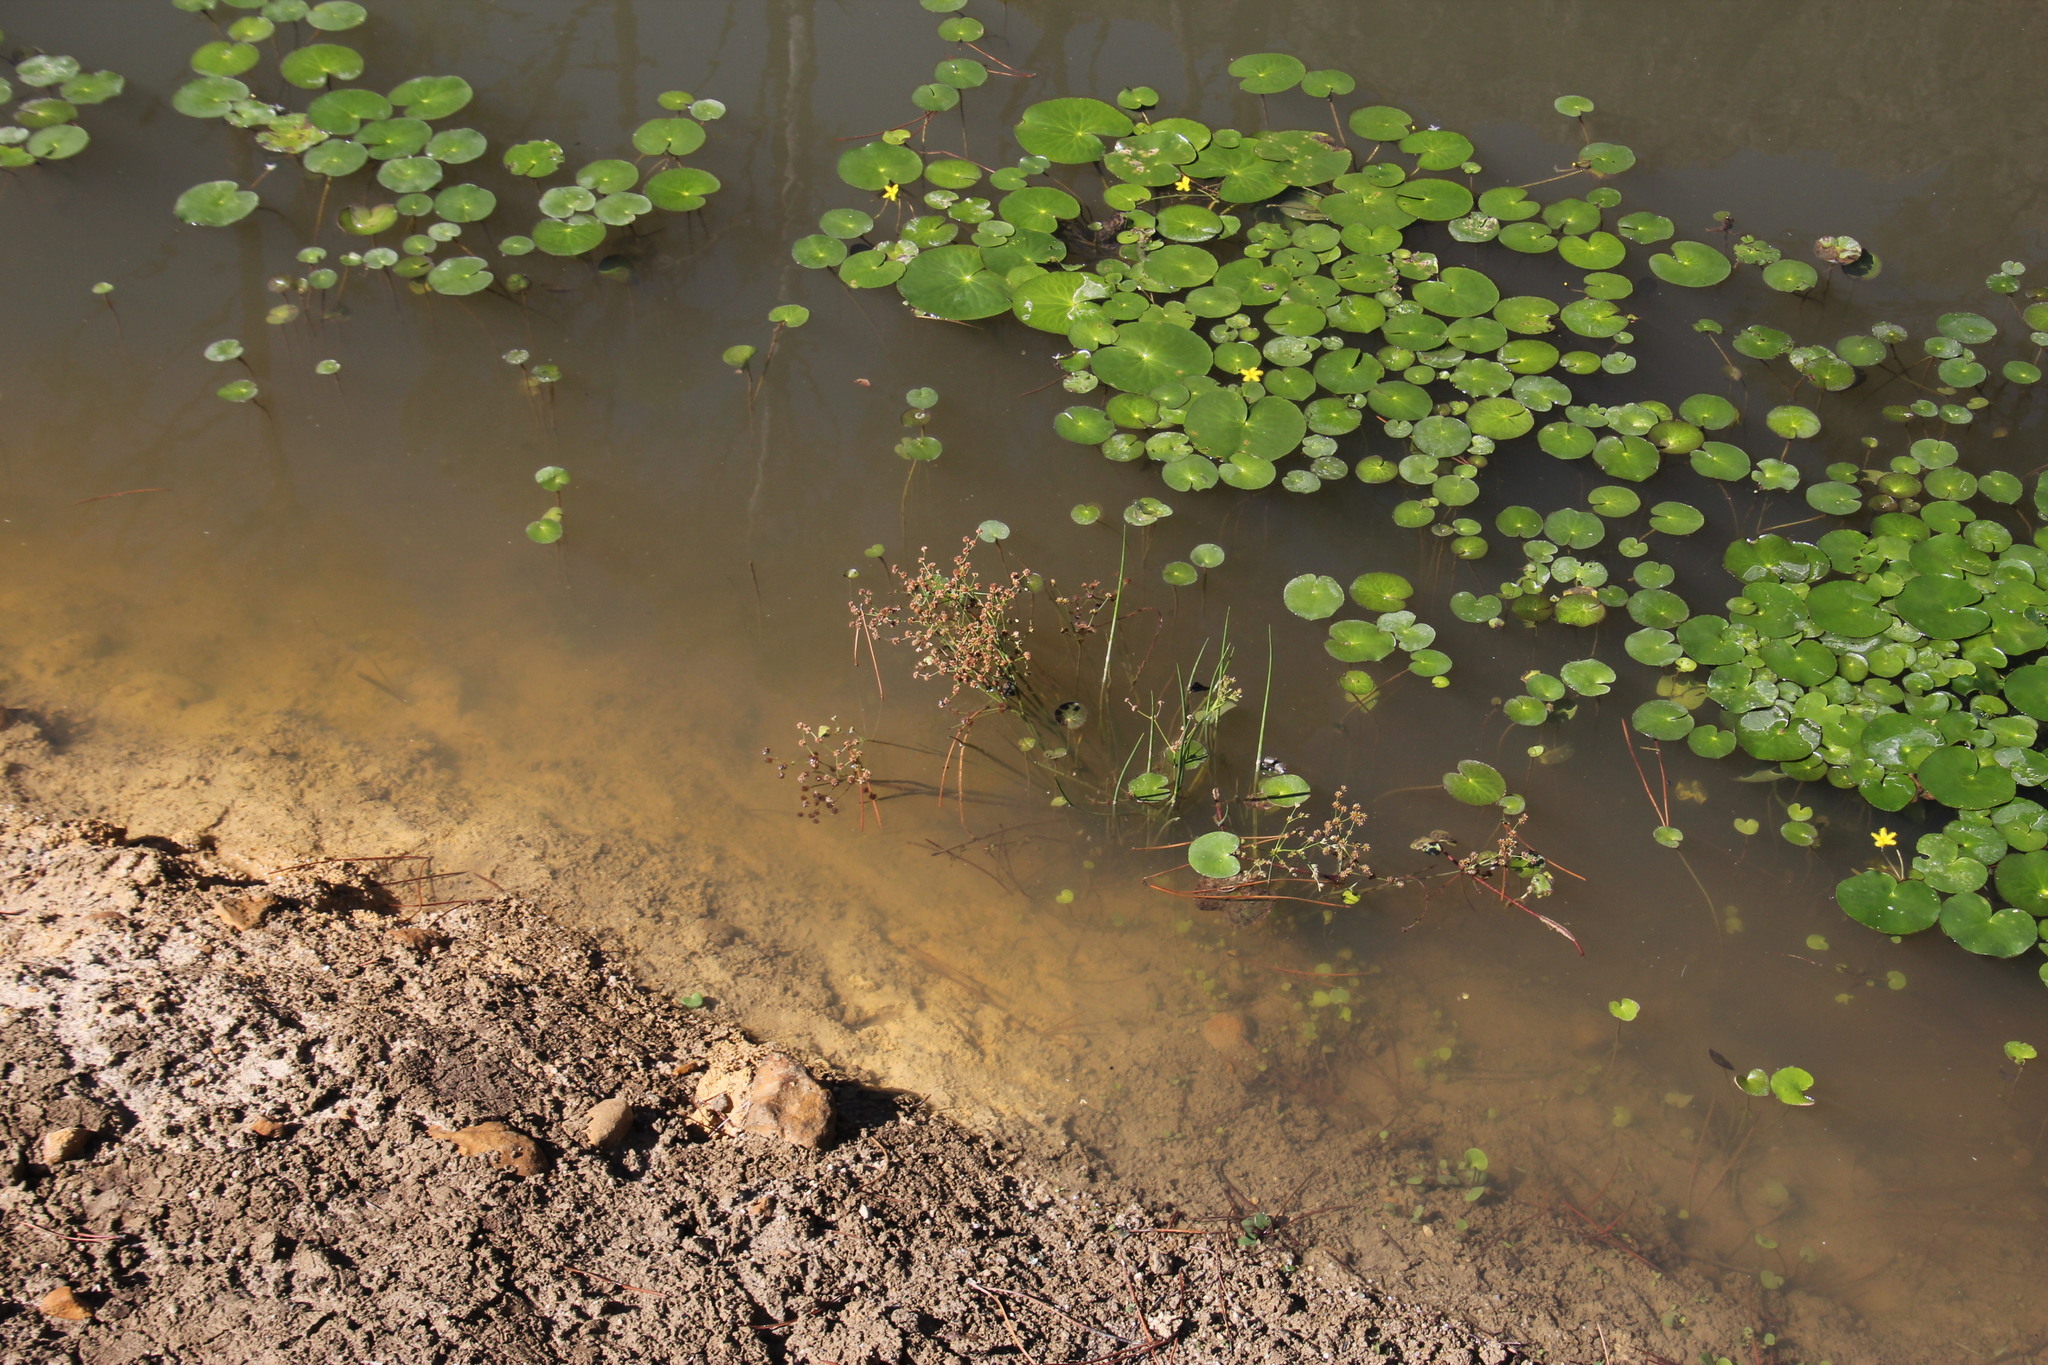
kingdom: Plantae
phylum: Tracheophyta
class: Liliopsida
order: Poales
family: Juncaceae
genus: Juncus
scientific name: Juncus oxycarpus
